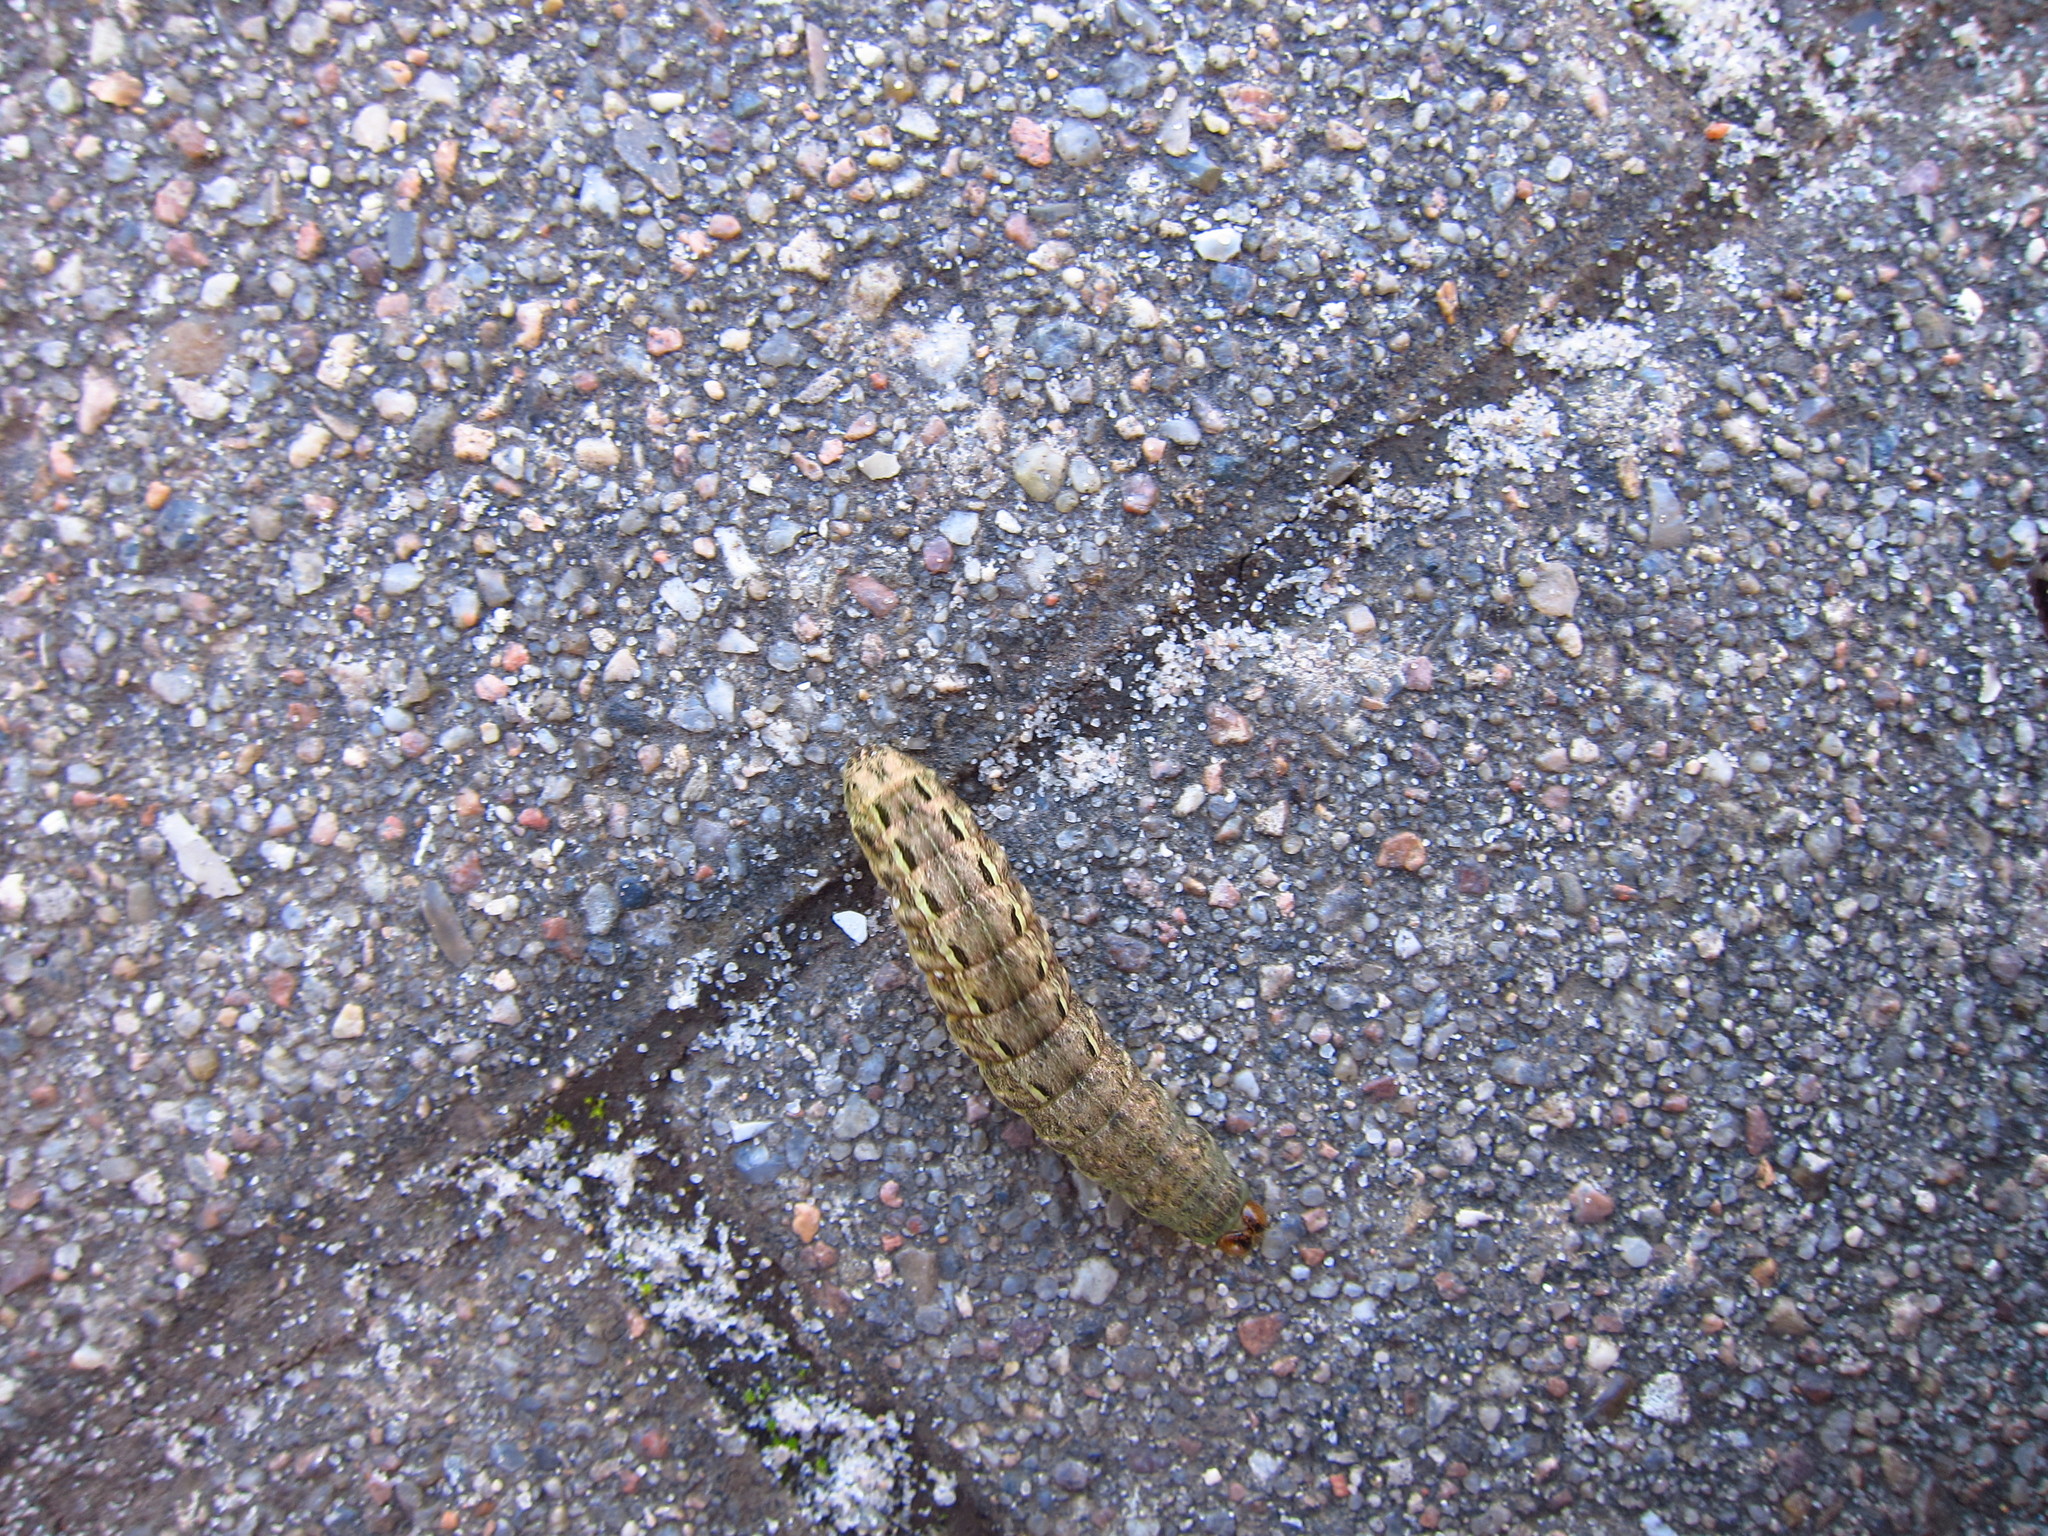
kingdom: Animalia
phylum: Arthropoda
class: Insecta
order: Lepidoptera
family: Noctuidae
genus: Noctua
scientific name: Noctua pronuba
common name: Large yellow underwing
